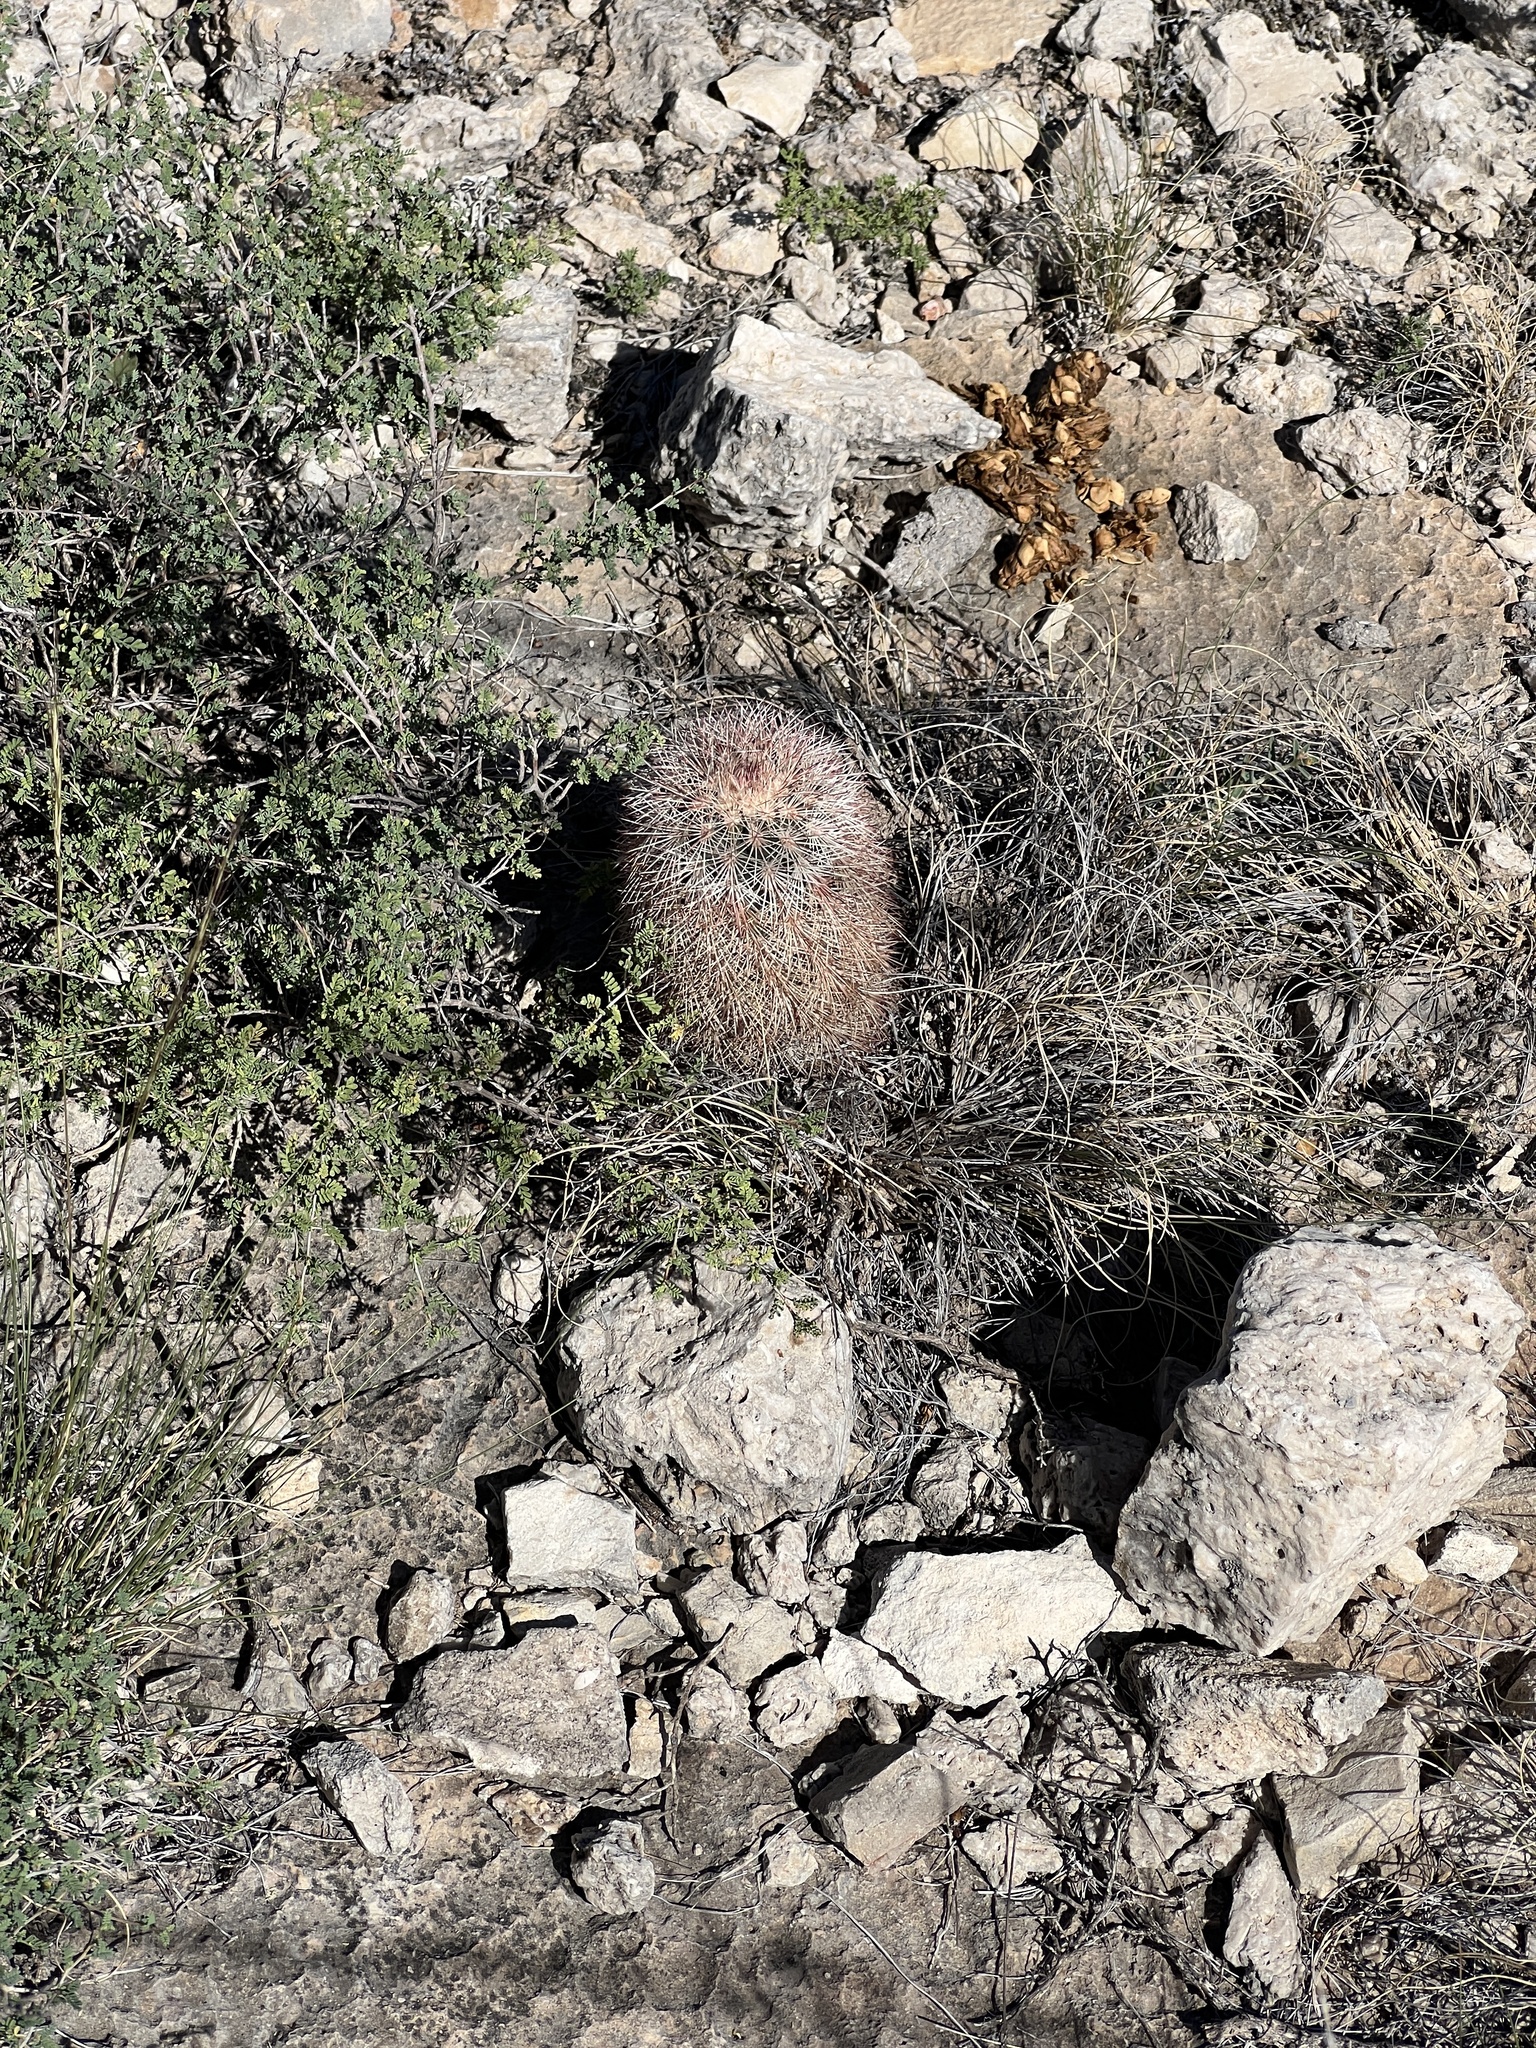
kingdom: Plantae
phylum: Tracheophyta
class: Magnoliopsida
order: Caryophyllales
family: Cactaceae
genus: Echinocereus
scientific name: Echinocereus dasyacanthus
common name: Spiny hedgehog cactus
